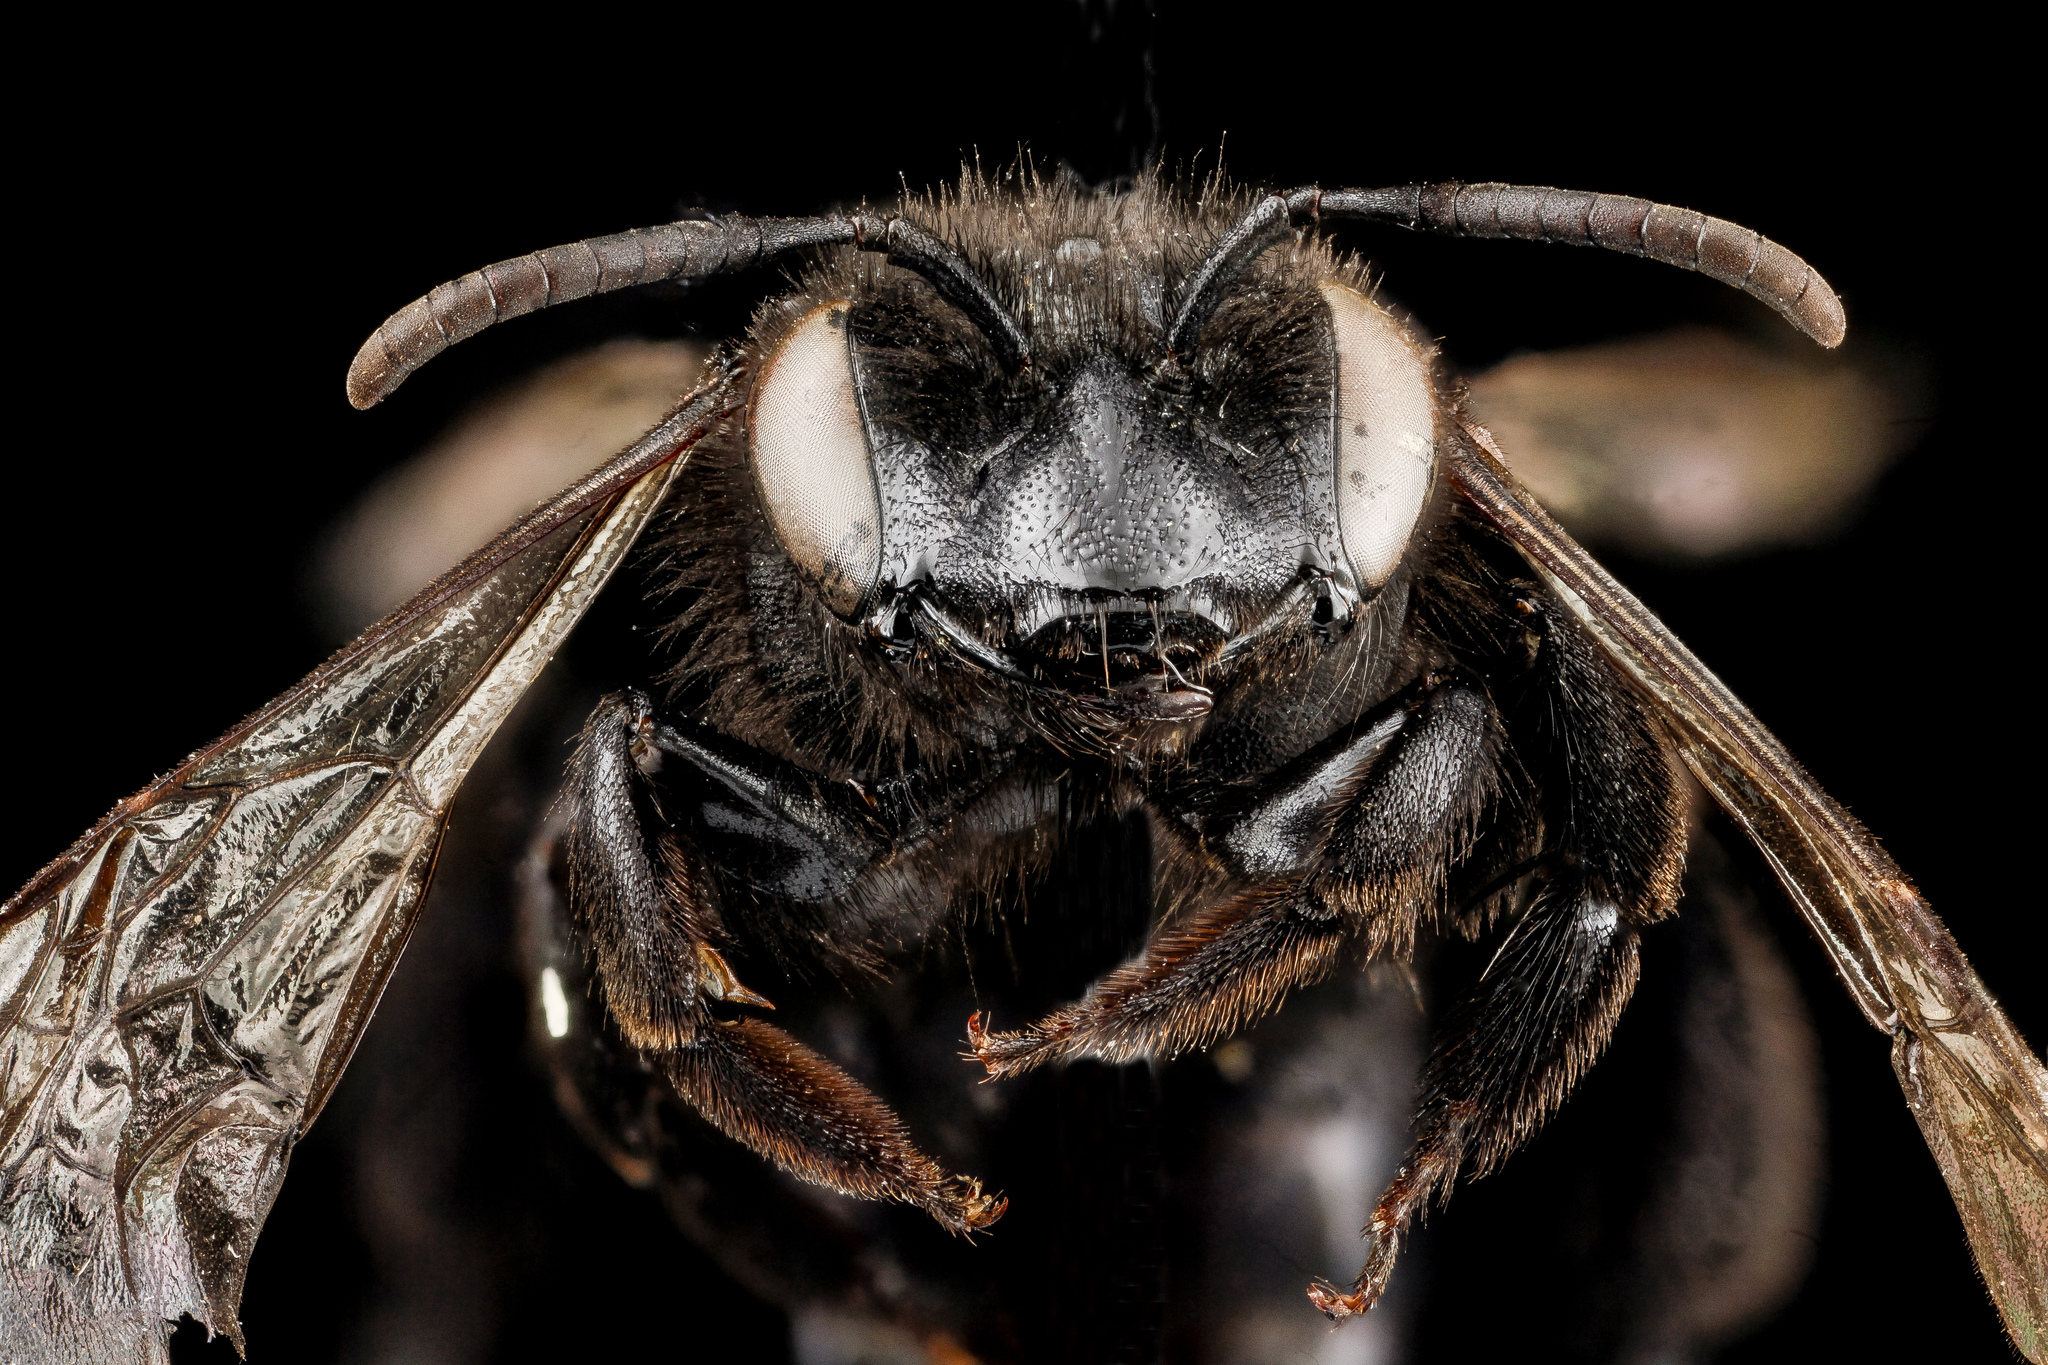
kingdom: Animalia
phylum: Arthropoda
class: Insecta
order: Hymenoptera
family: Andrenidae
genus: Andrena
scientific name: Andrena nigerrima
